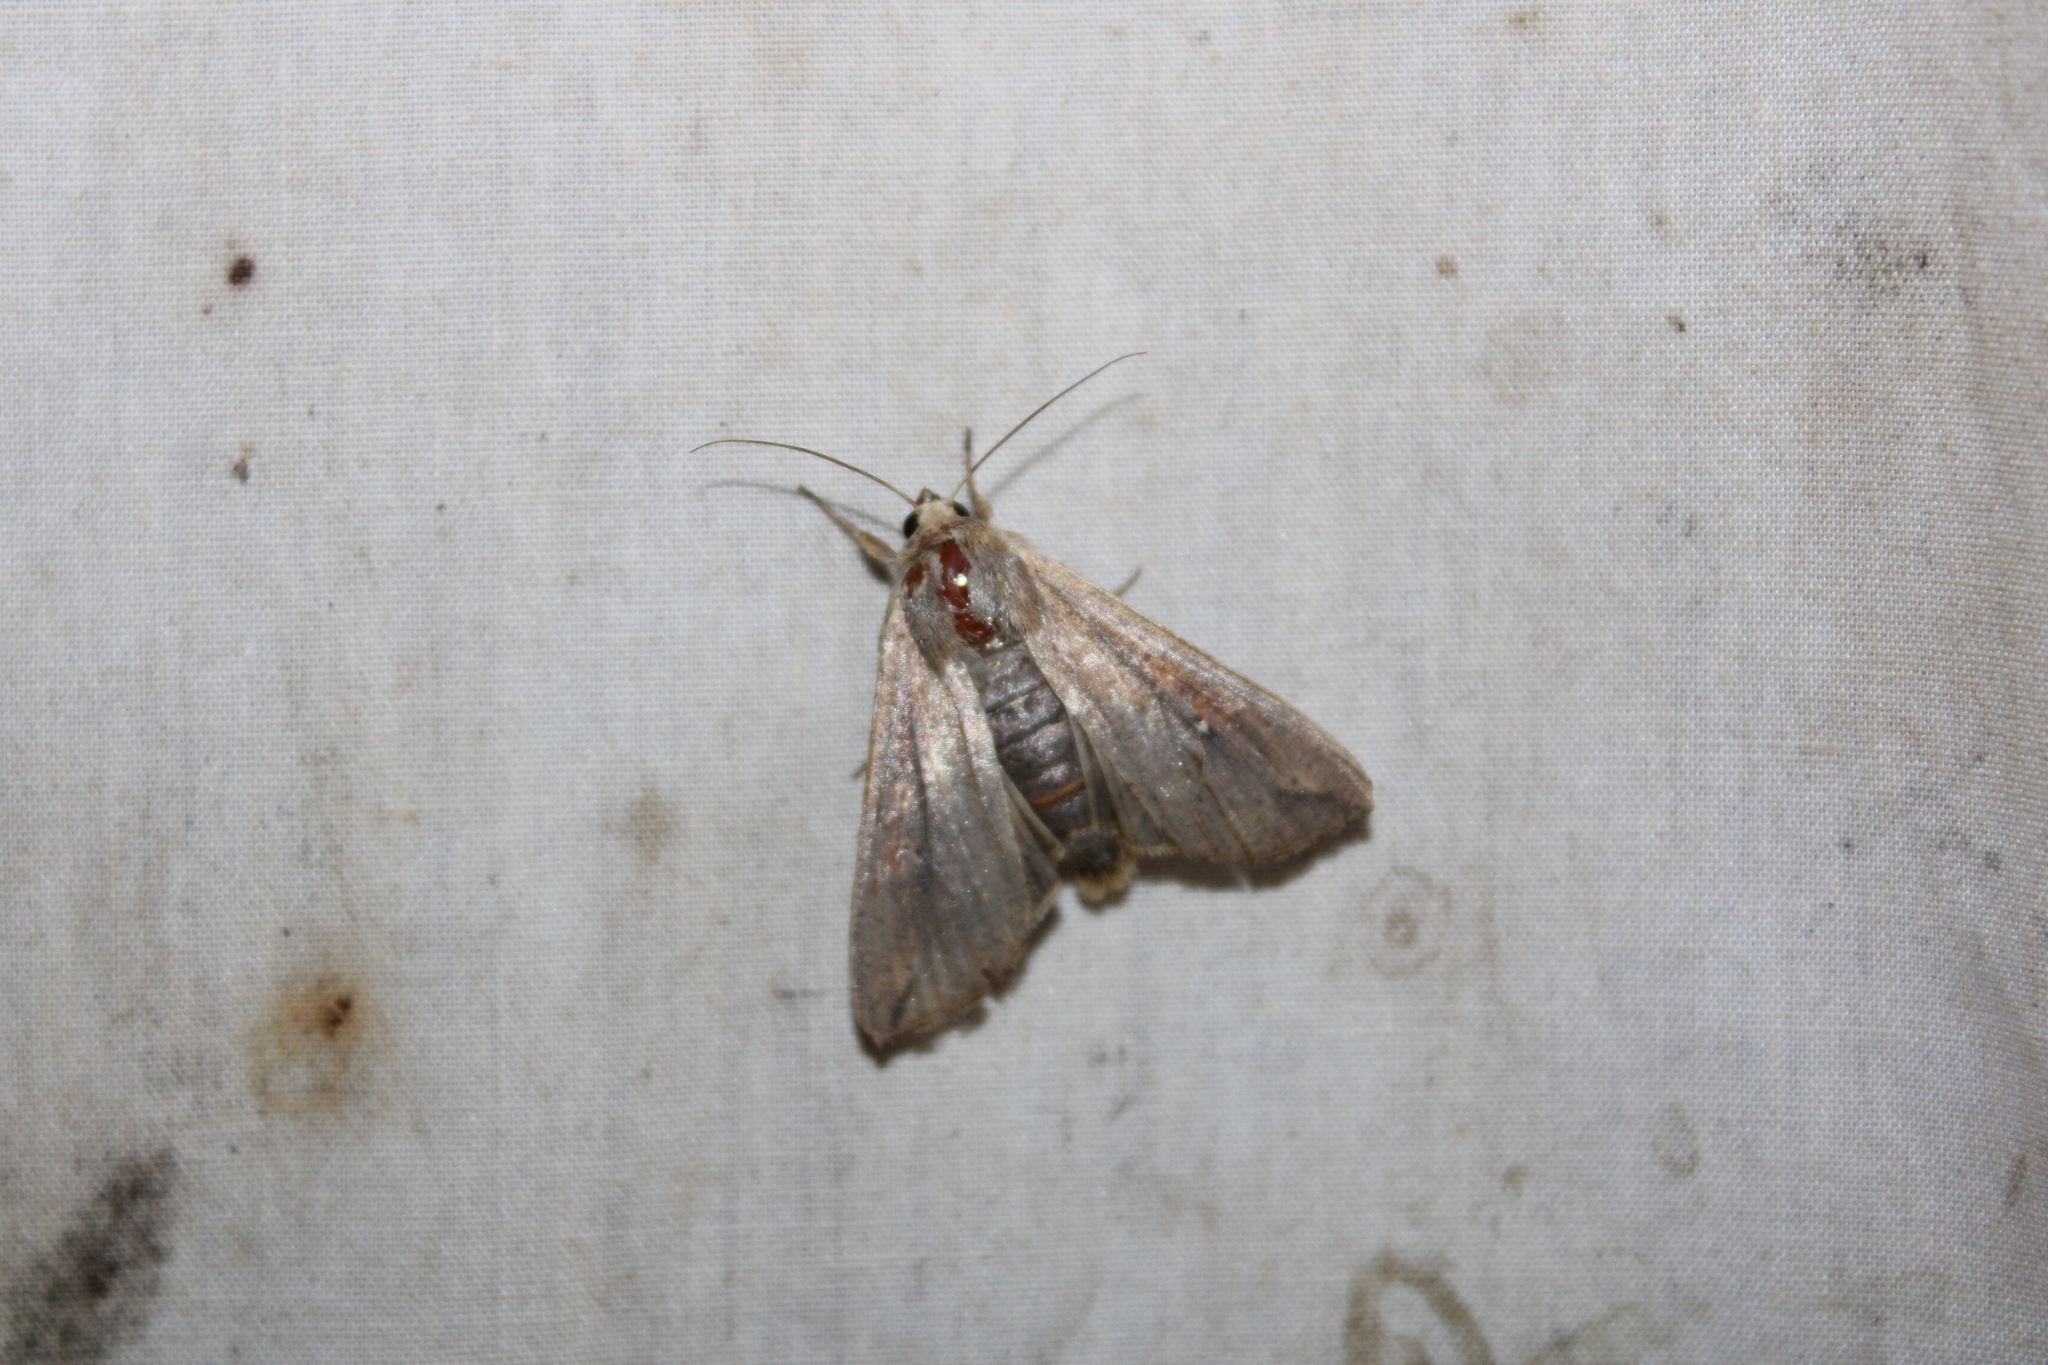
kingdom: Animalia
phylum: Arthropoda
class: Insecta
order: Lepidoptera
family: Noctuidae
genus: Mythimna
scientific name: Mythimna unipuncta
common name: White-speck
